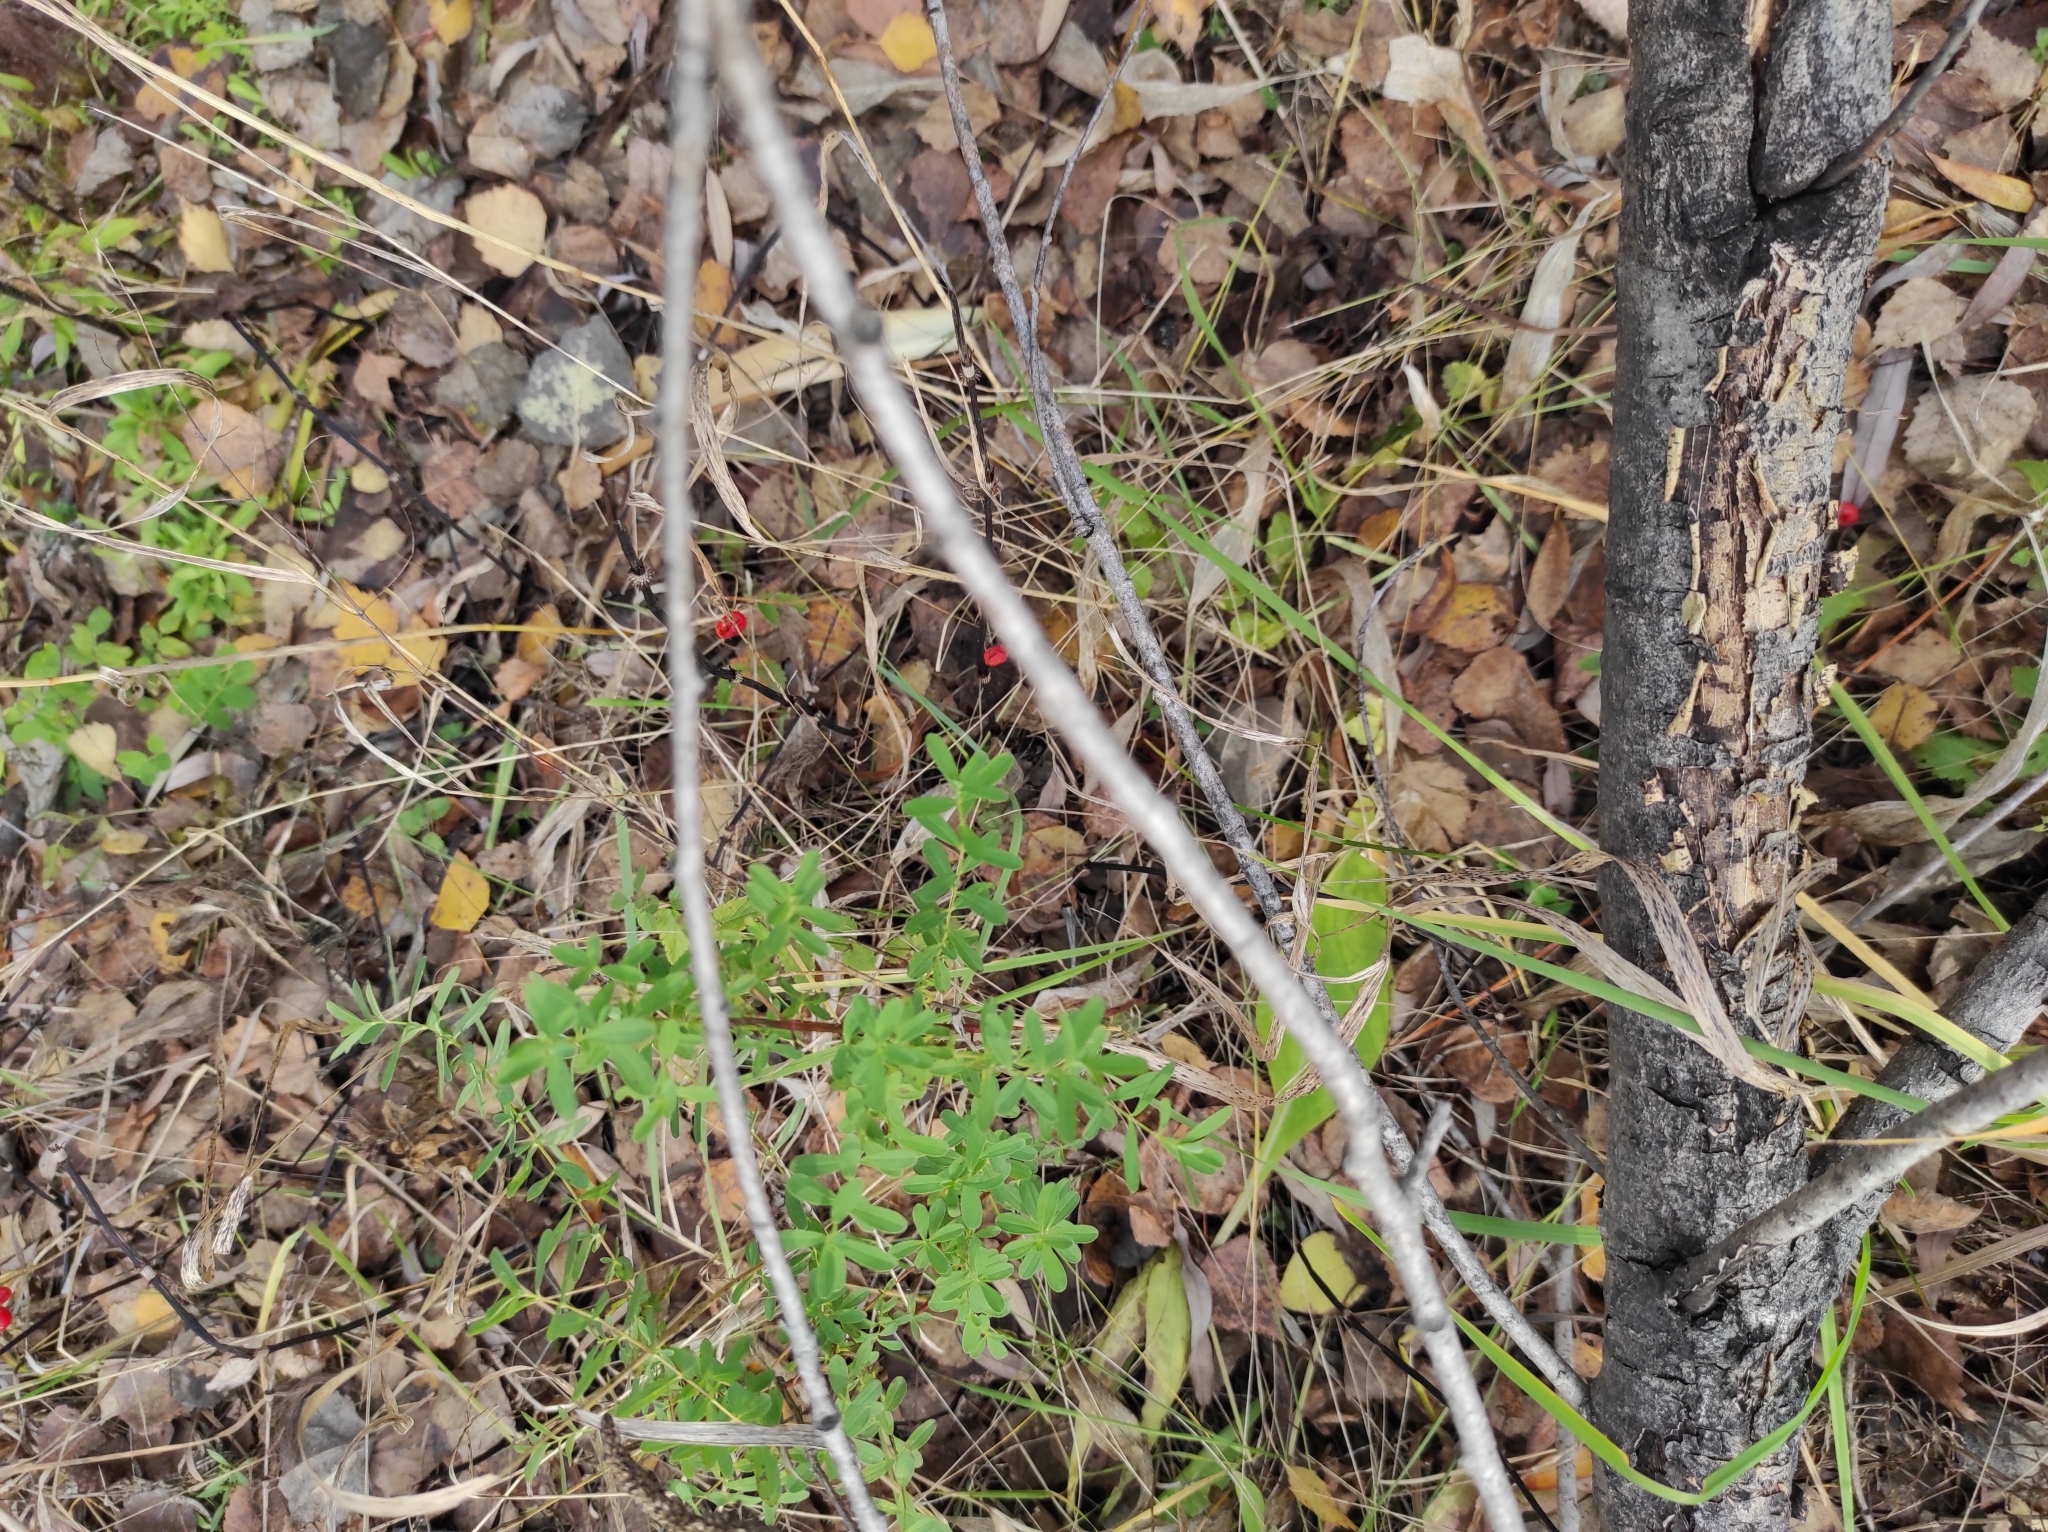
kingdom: Plantae
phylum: Tracheophyta
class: Magnoliopsida
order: Malpighiales
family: Hypericaceae
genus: Hypericum
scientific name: Hypericum perforatum
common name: Common st. johnswort
